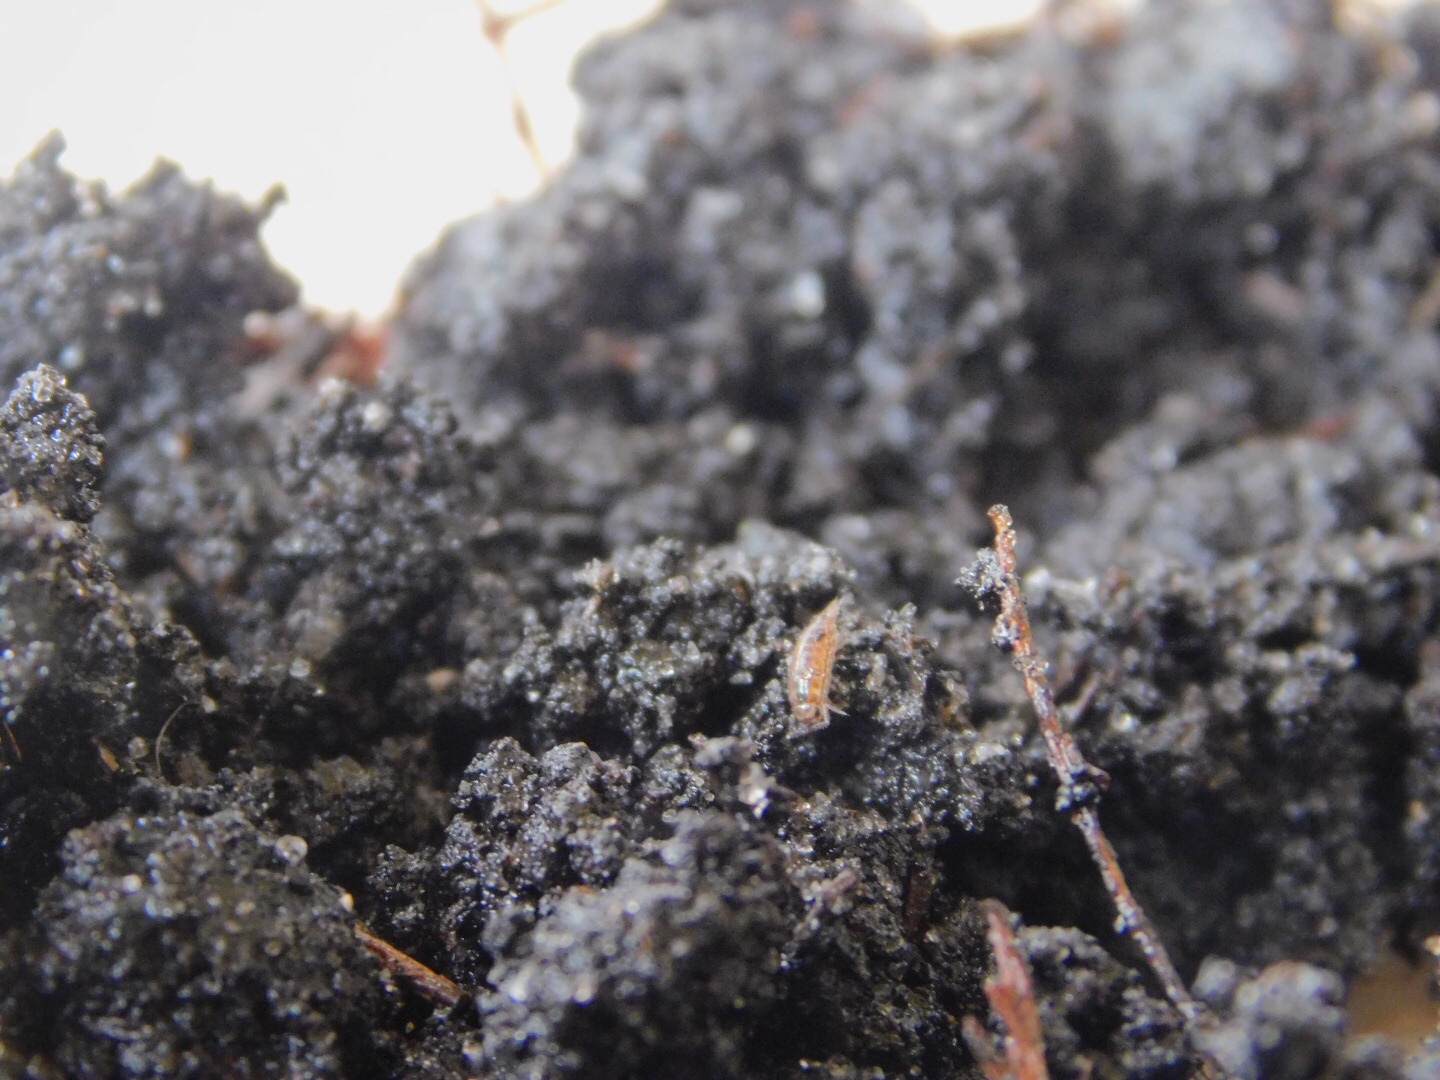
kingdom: Animalia
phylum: Arthropoda
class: Malacostraca
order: Isopoda
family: Philosciidae
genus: Atlantoscia
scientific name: Atlantoscia floridana
